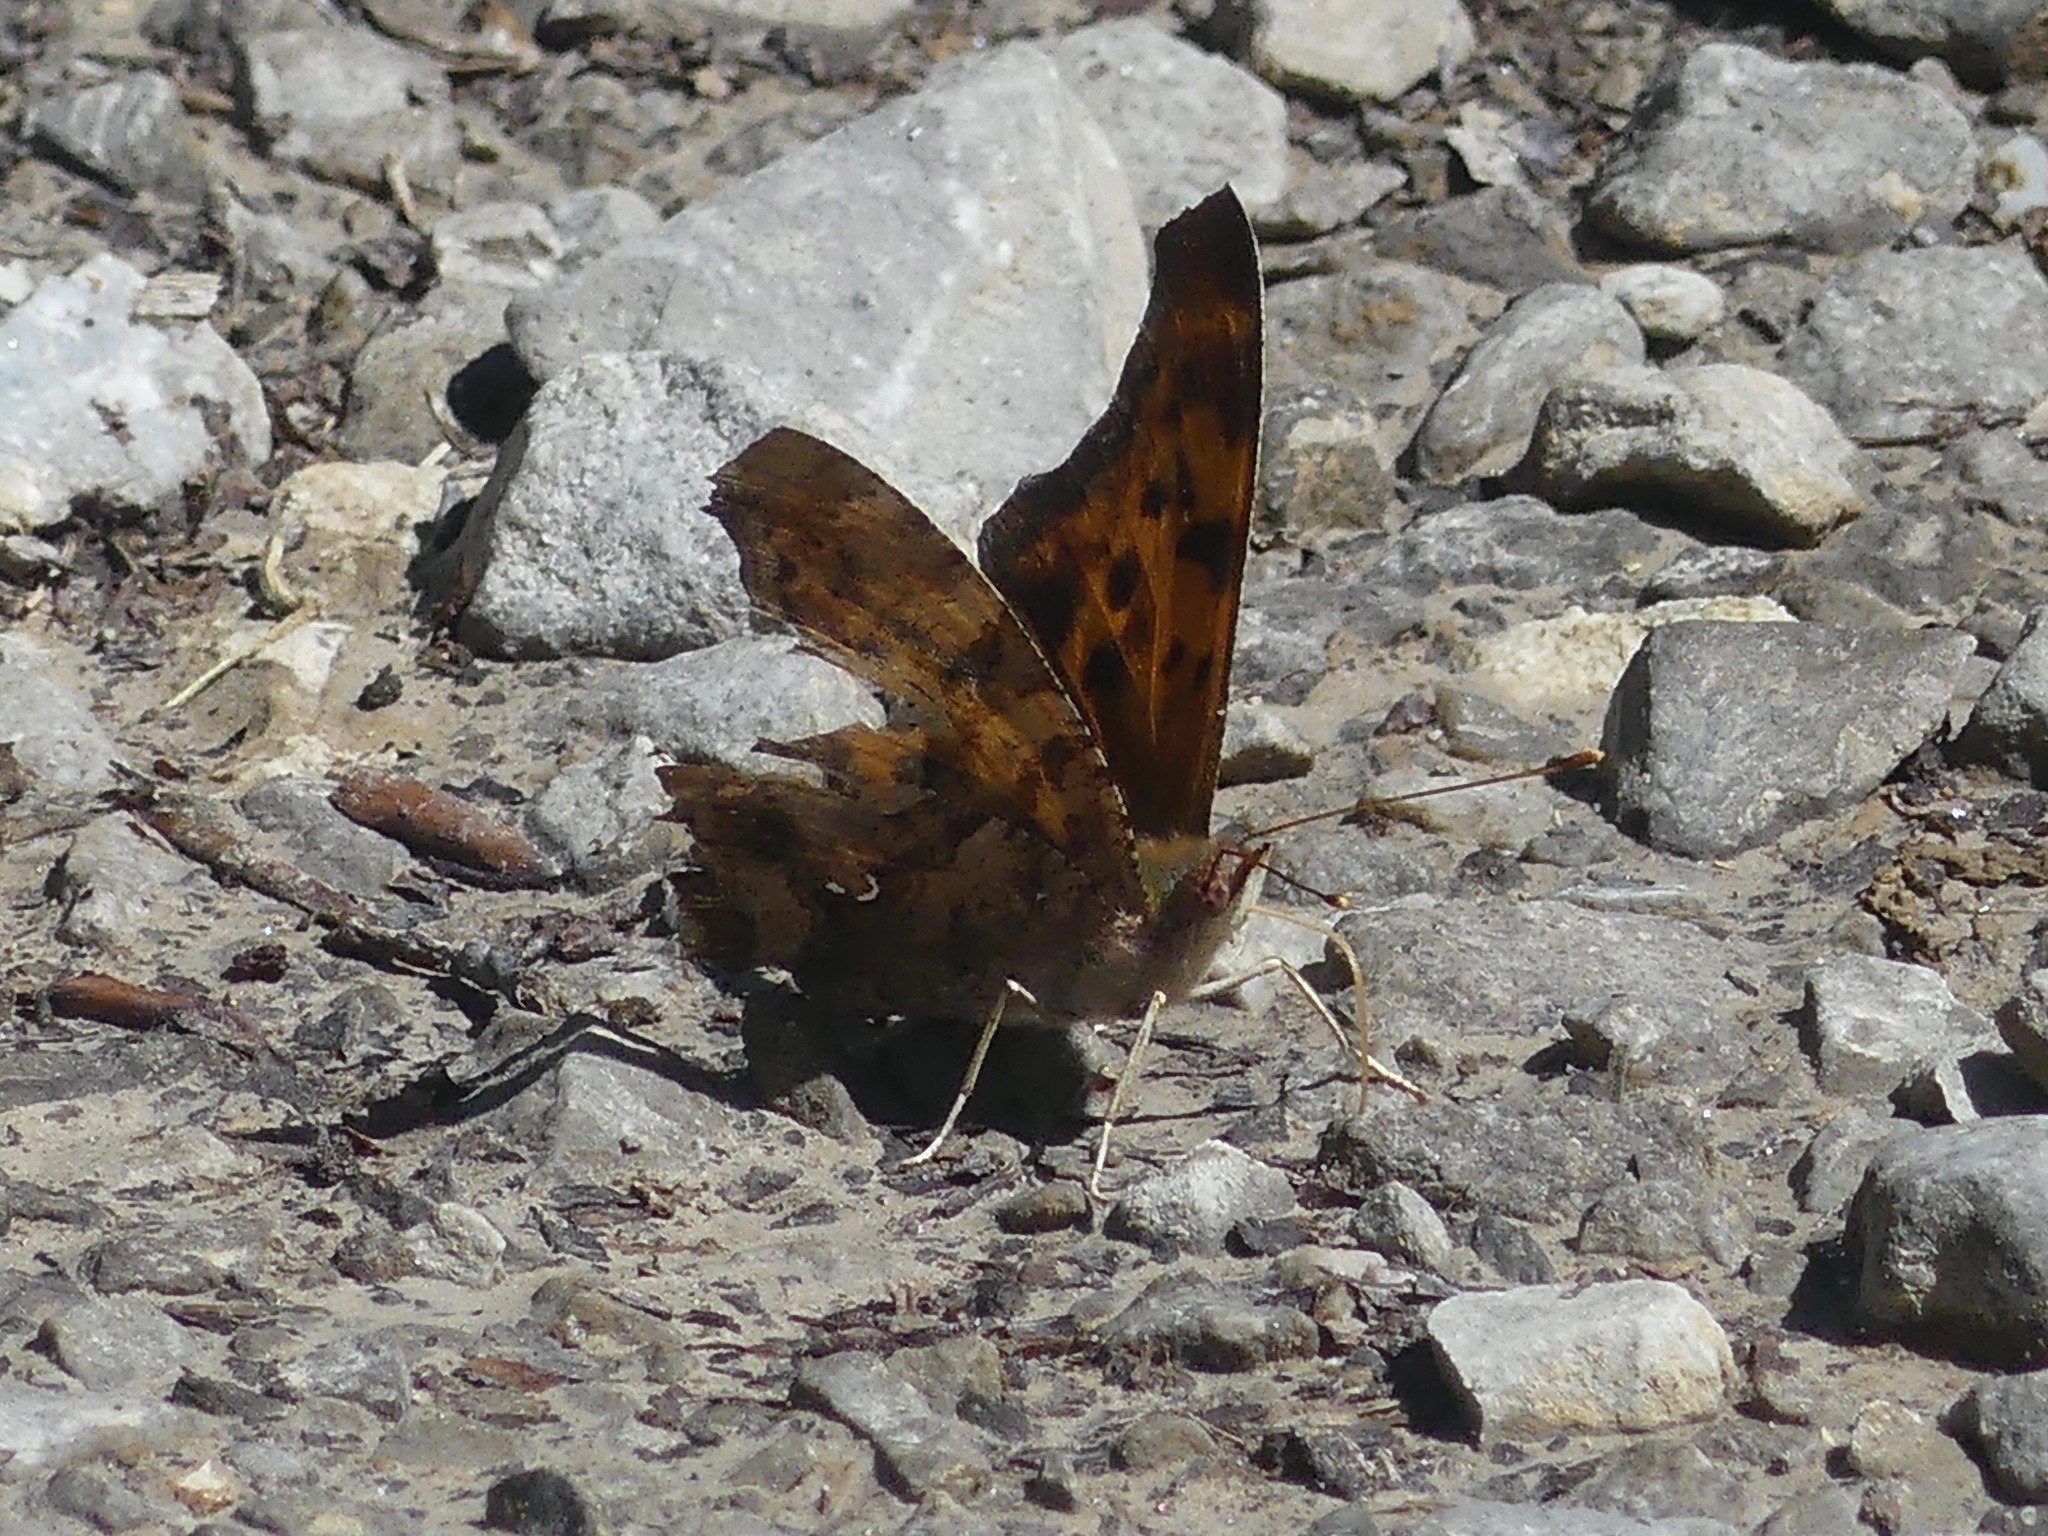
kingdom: Animalia
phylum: Arthropoda
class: Insecta
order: Lepidoptera
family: Nymphalidae
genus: Polygonia
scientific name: Polygonia interrogationis
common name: Question mark
